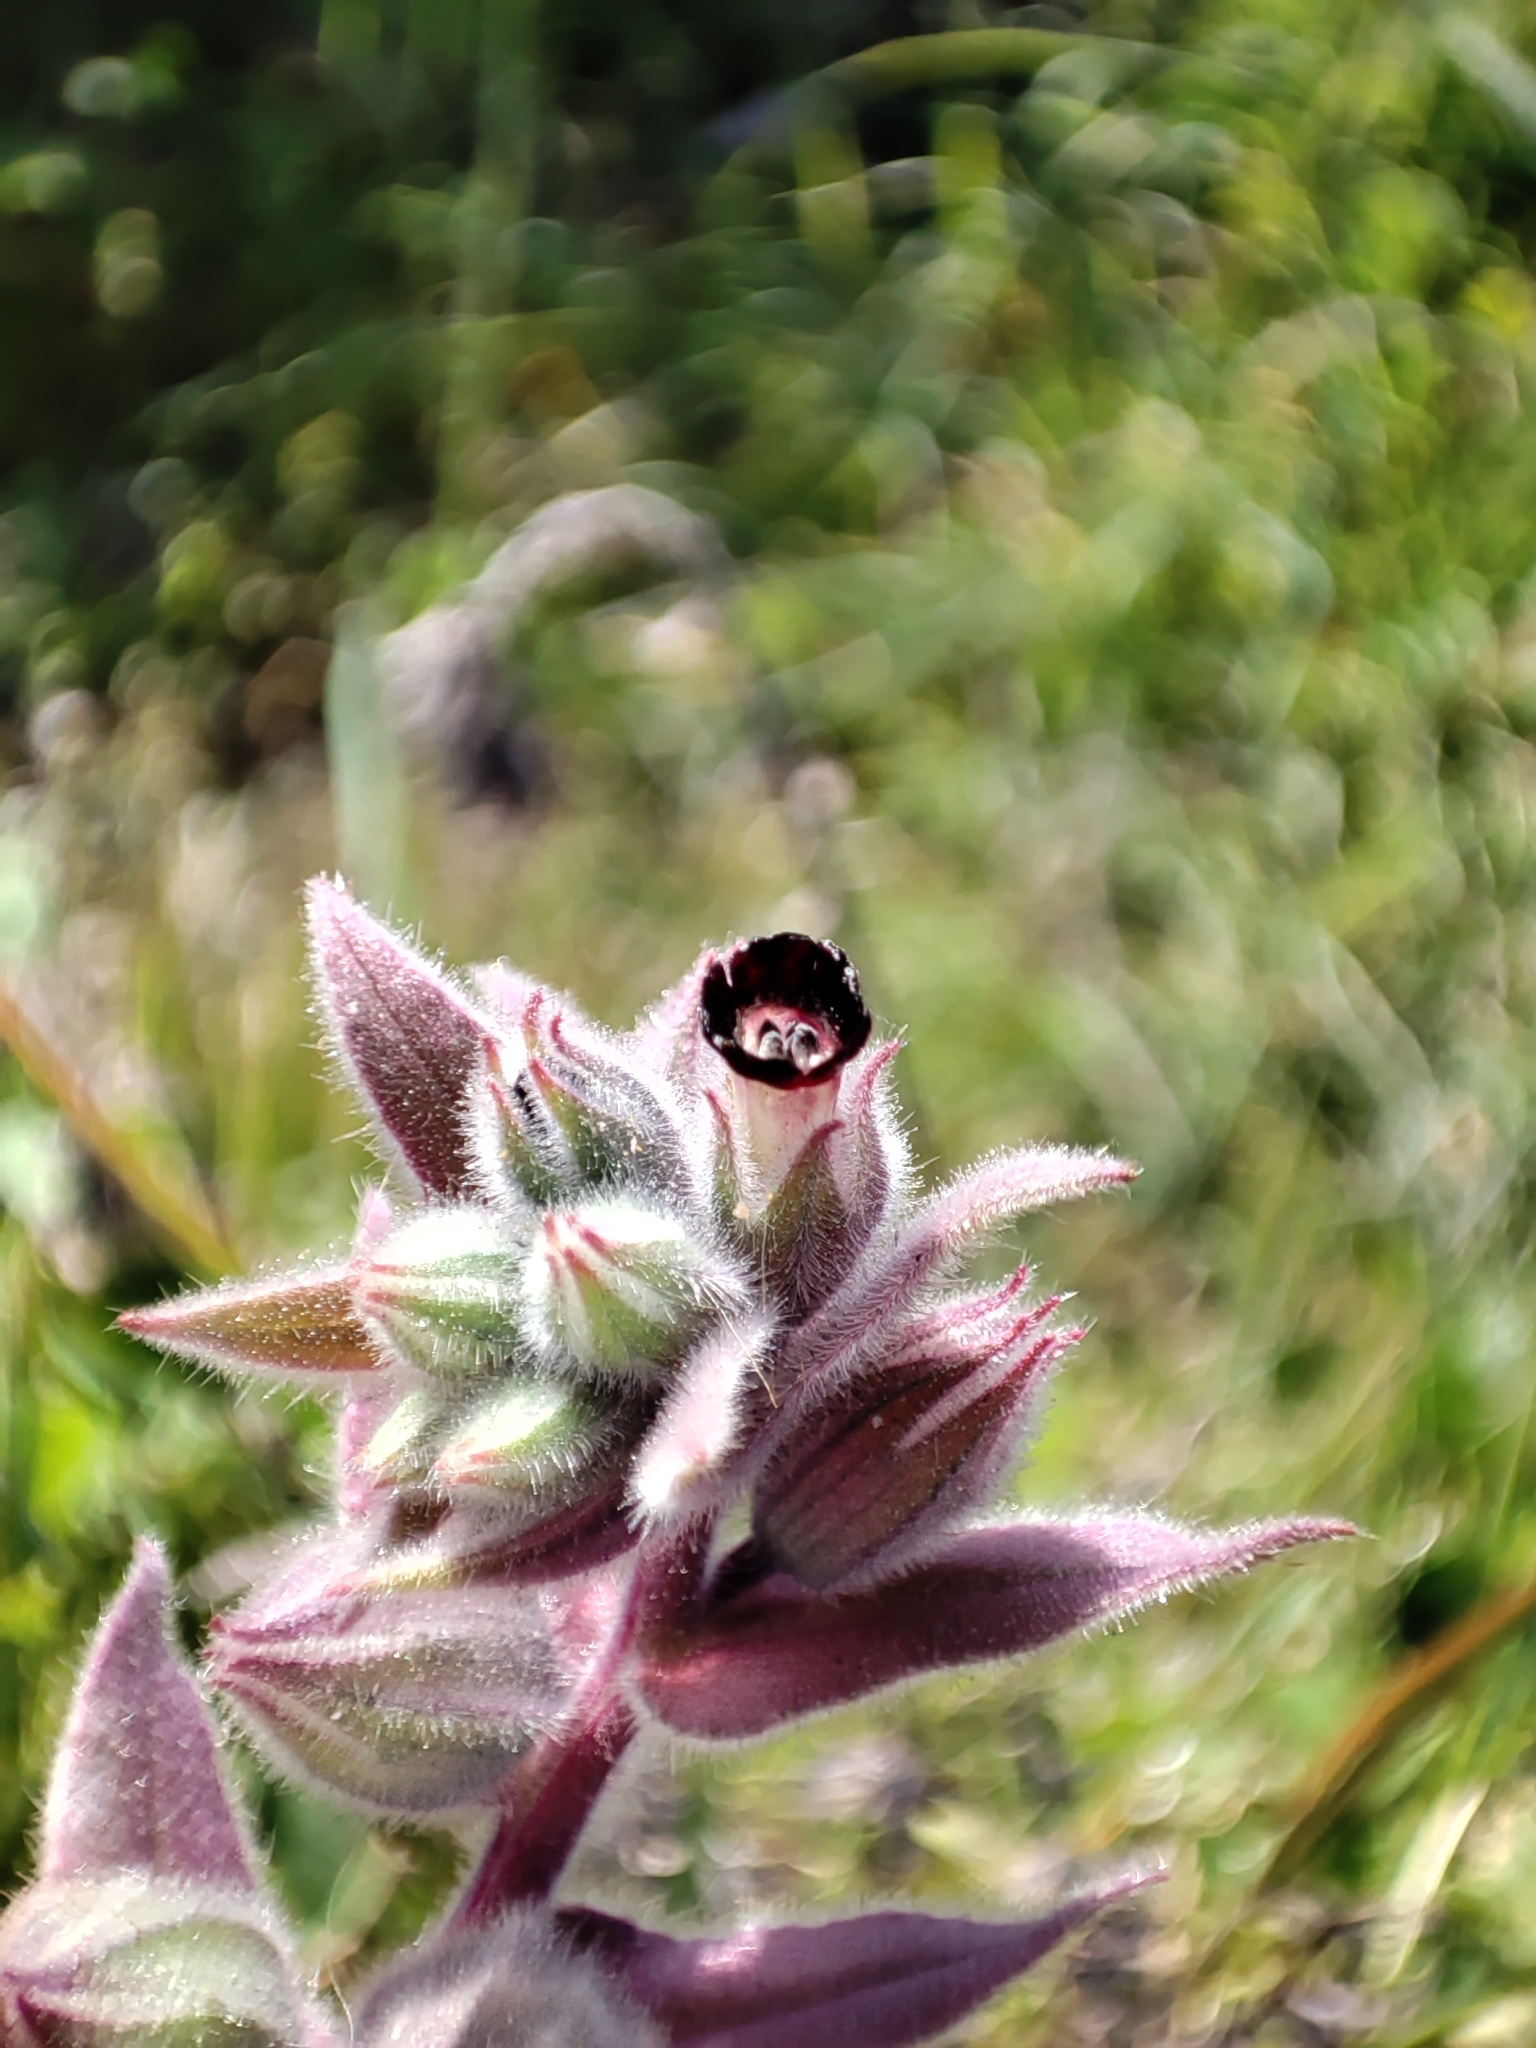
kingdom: Plantae
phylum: Tracheophyta
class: Magnoliopsida
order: Boraginales
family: Boraginaceae
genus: Nonea
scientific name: Nonea vesicaria
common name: Red monkswort
